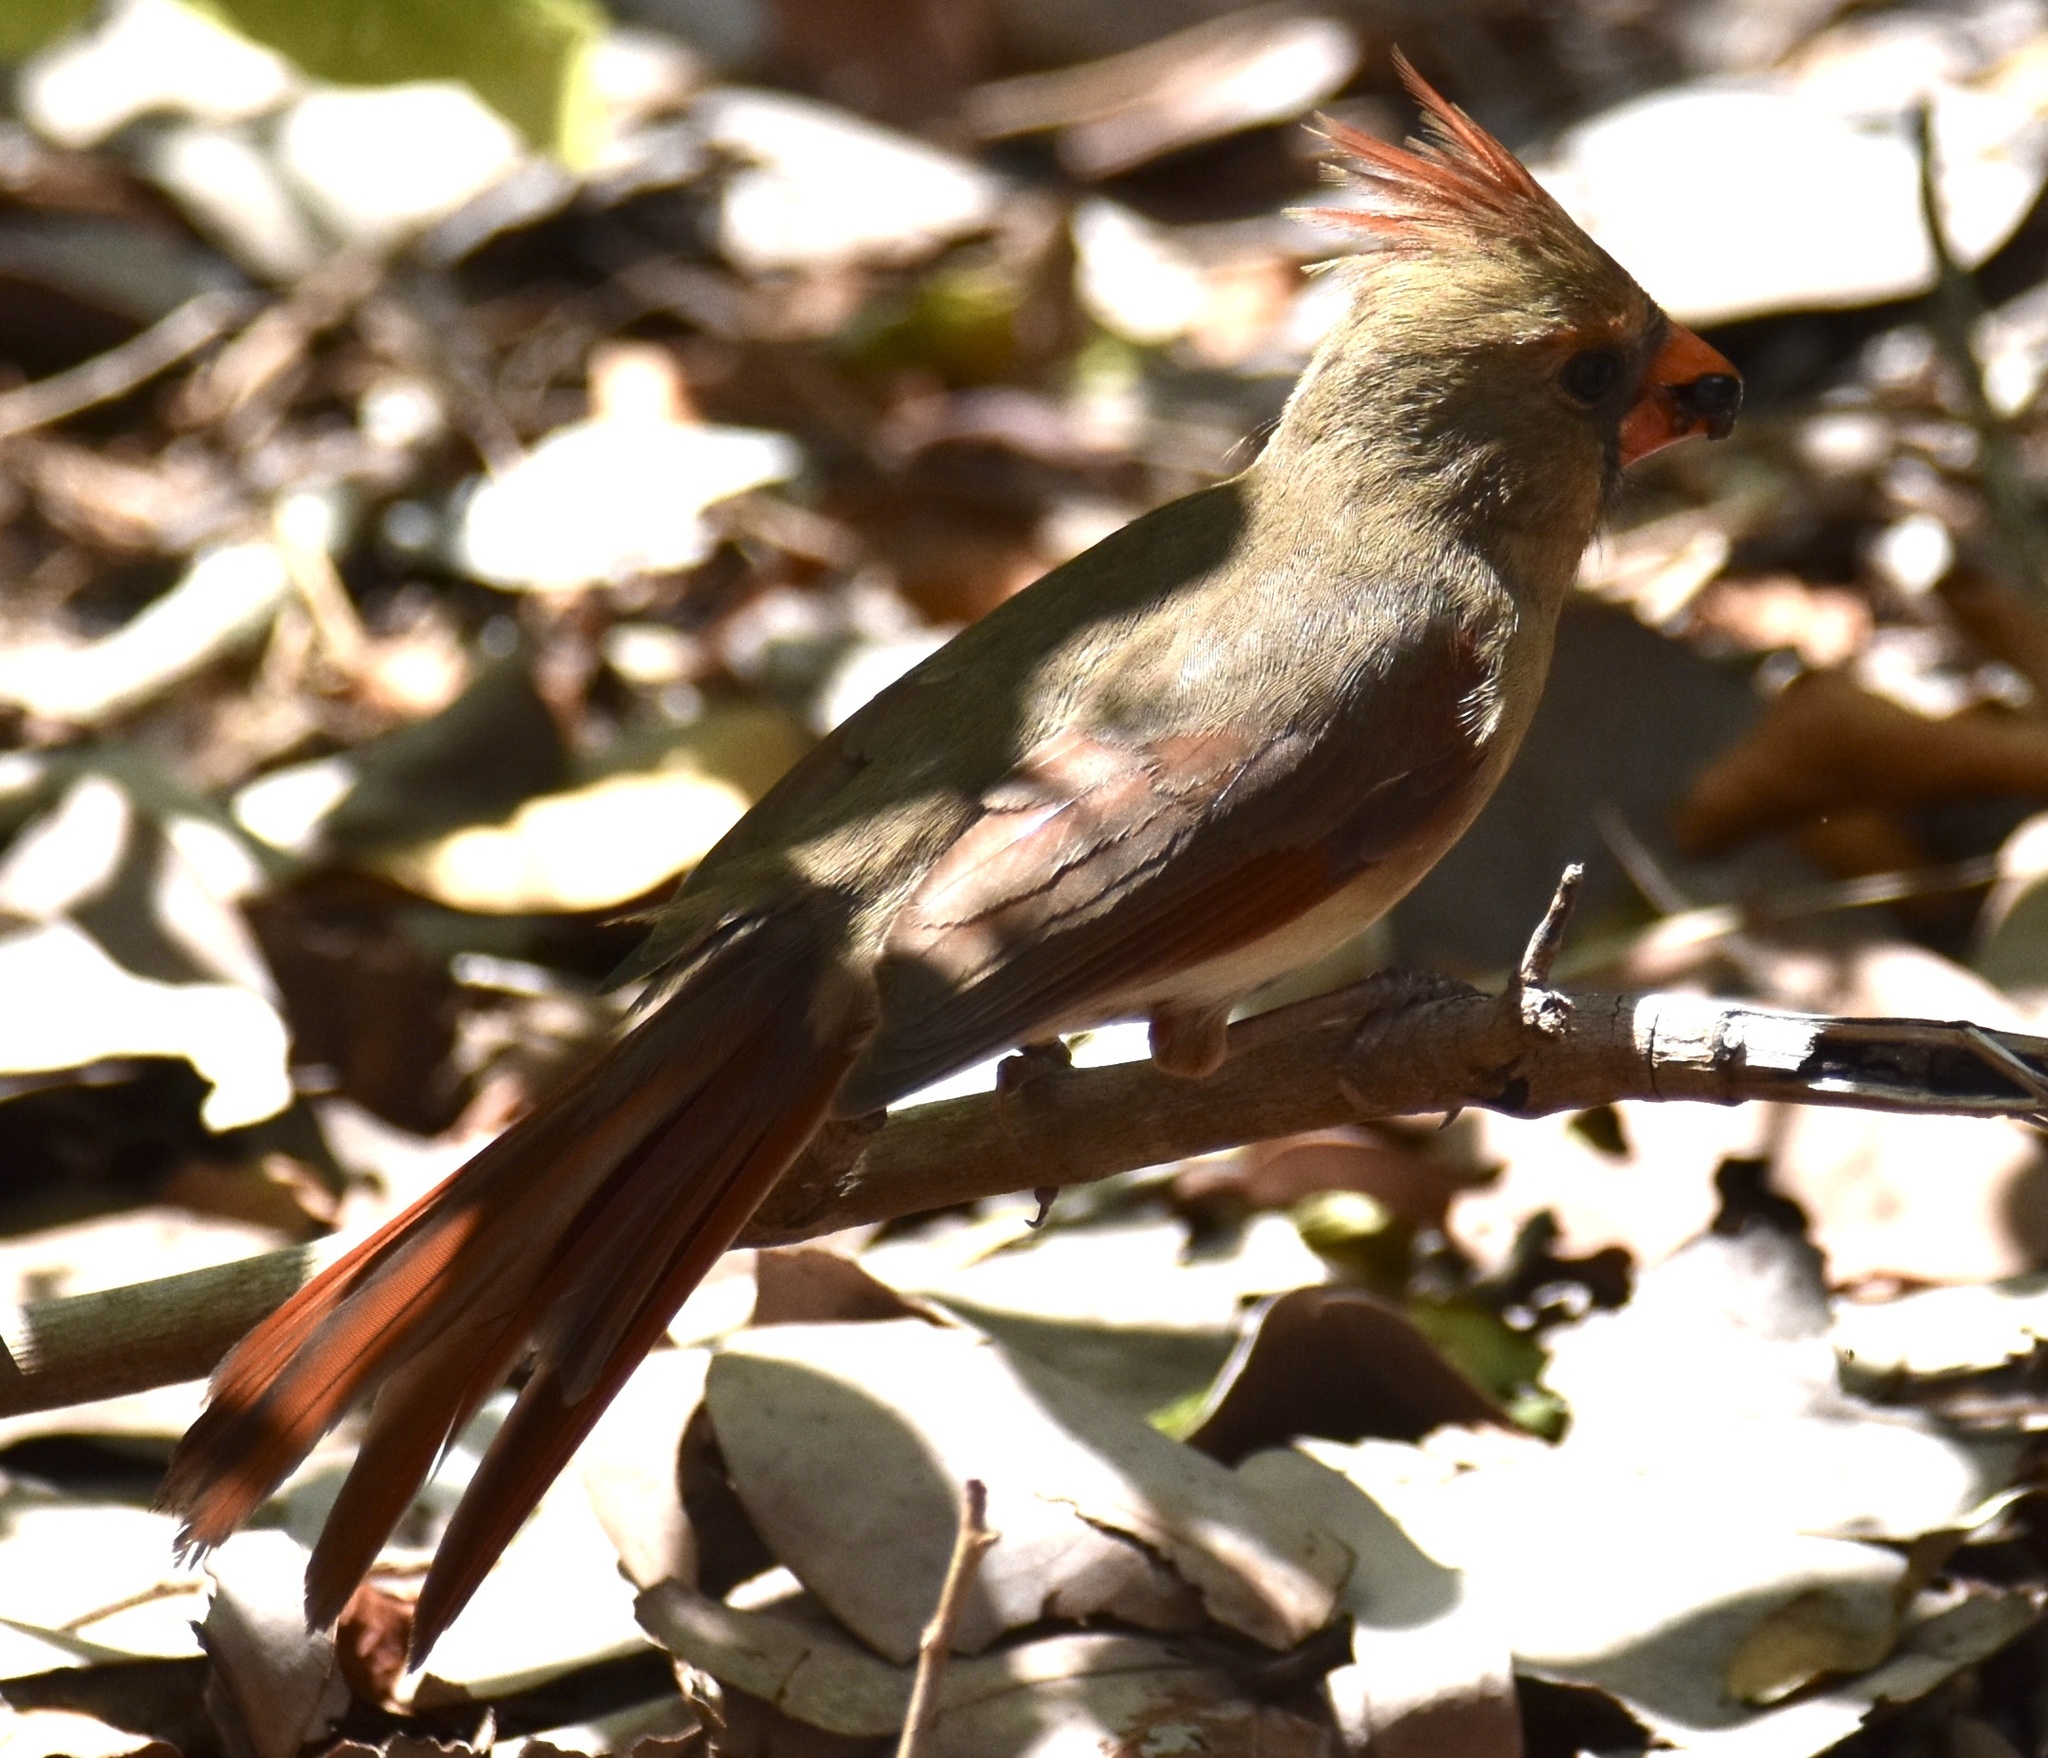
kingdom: Animalia
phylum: Chordata
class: Aves
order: Passeriformes
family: Cardinalidae
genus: Cardinalis
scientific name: Cardinalis cardinalis
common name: Northern cardinal
